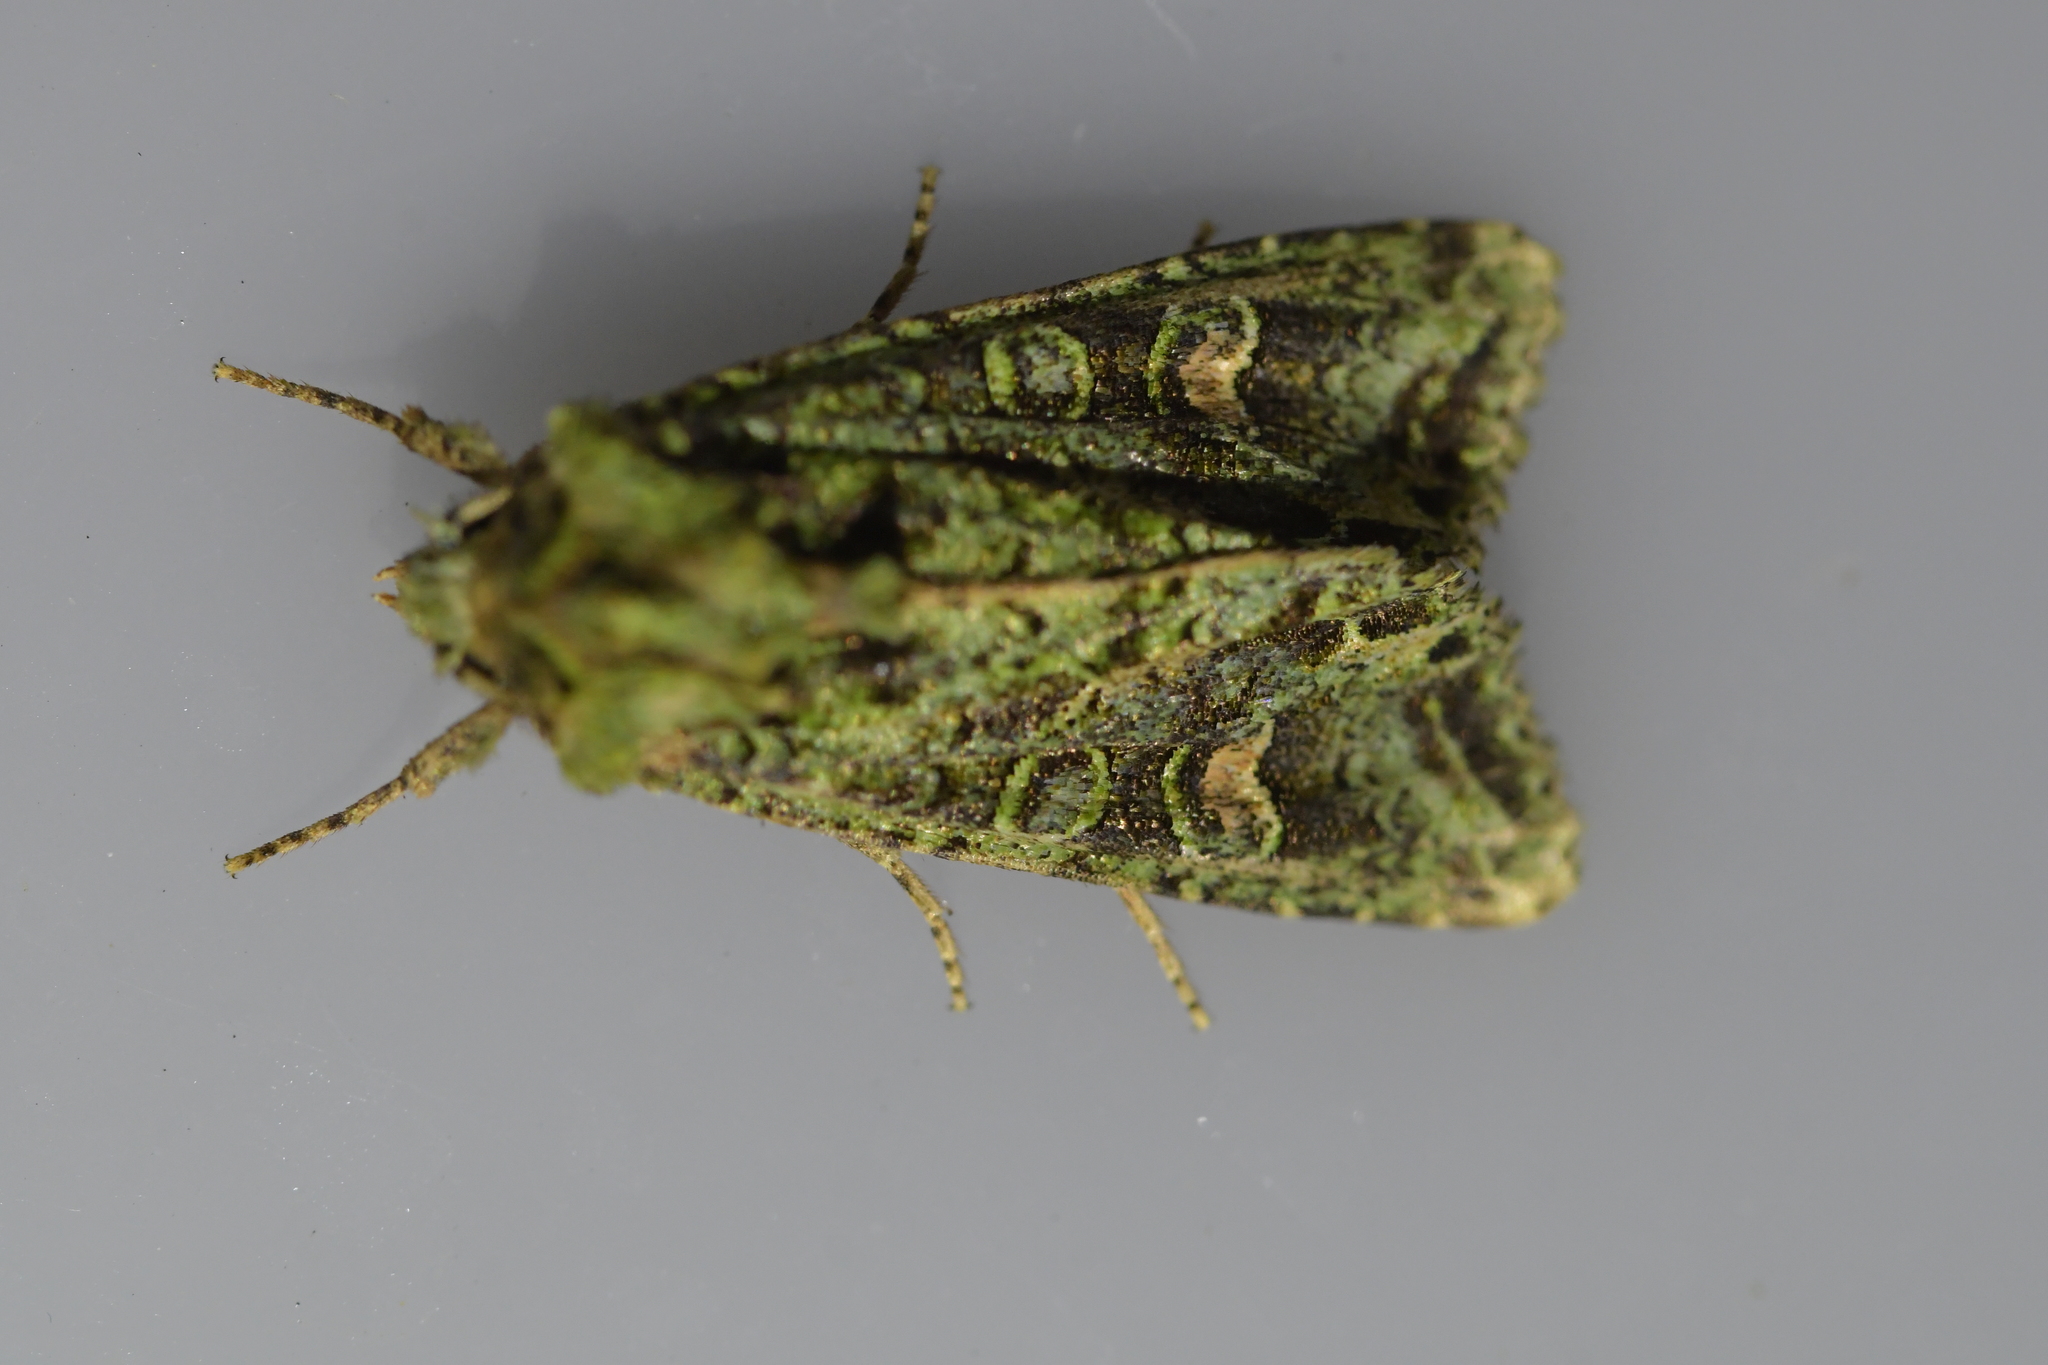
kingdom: Animalia
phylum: Arthropoda
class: Insecta
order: Lepidoptera
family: Noctuidae
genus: Ichneutica
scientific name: Ichneutica
